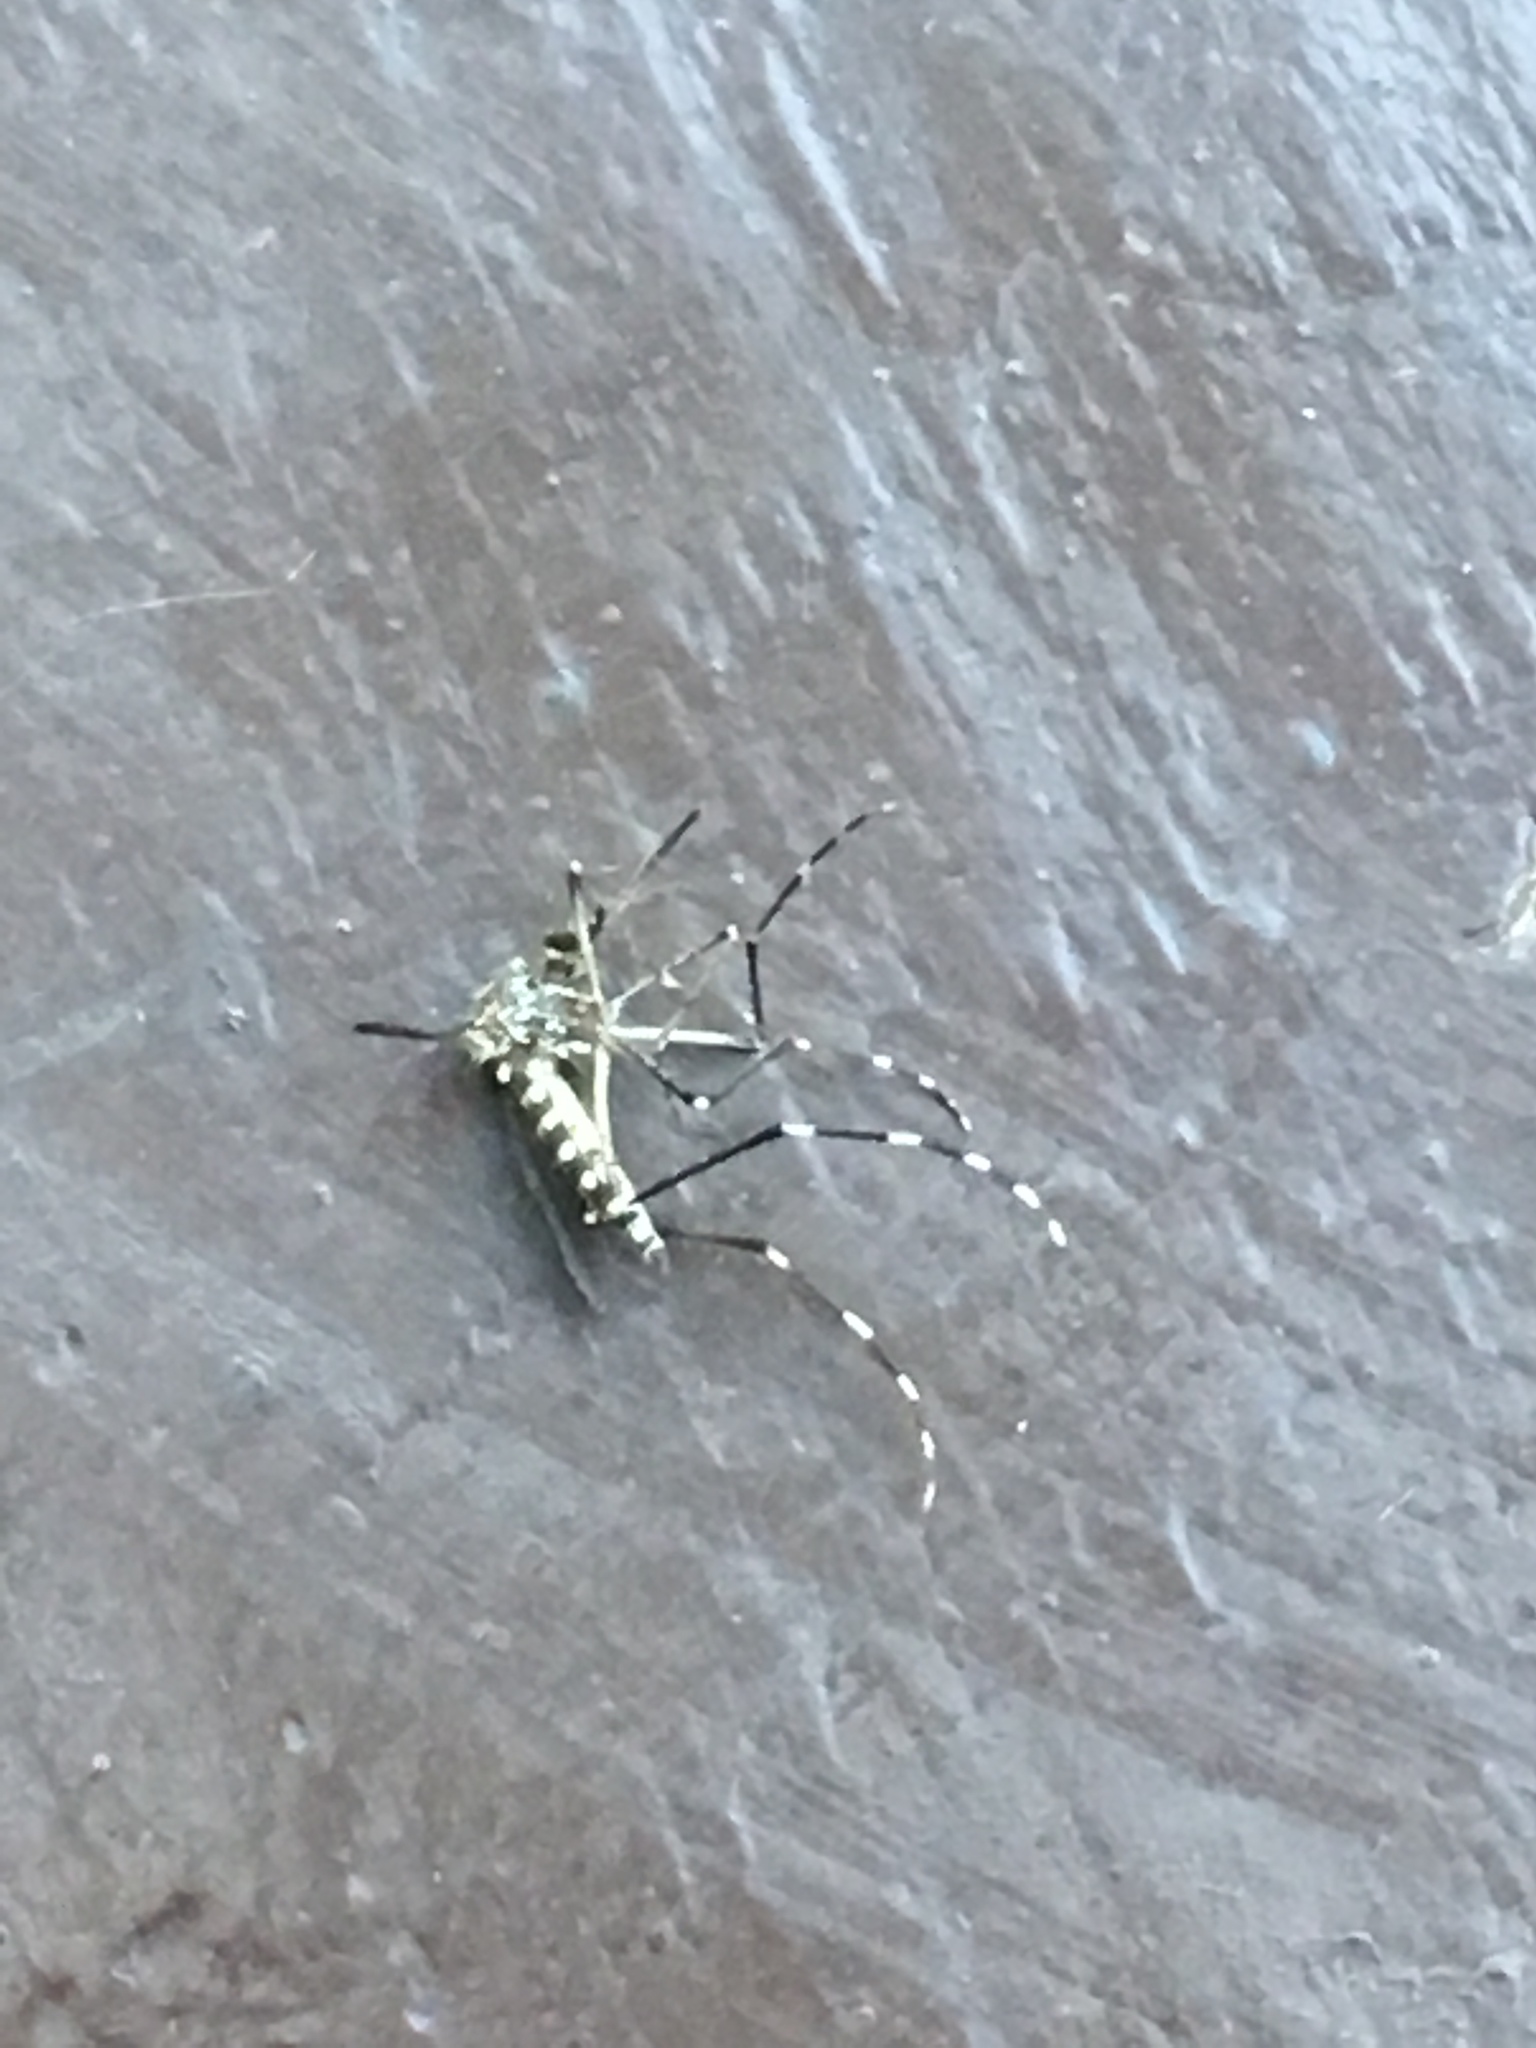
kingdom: Animalia
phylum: Arthropoda
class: Insecta
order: Diptera
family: Culicidae
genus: Aedes
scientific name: Aedes sierrensis
